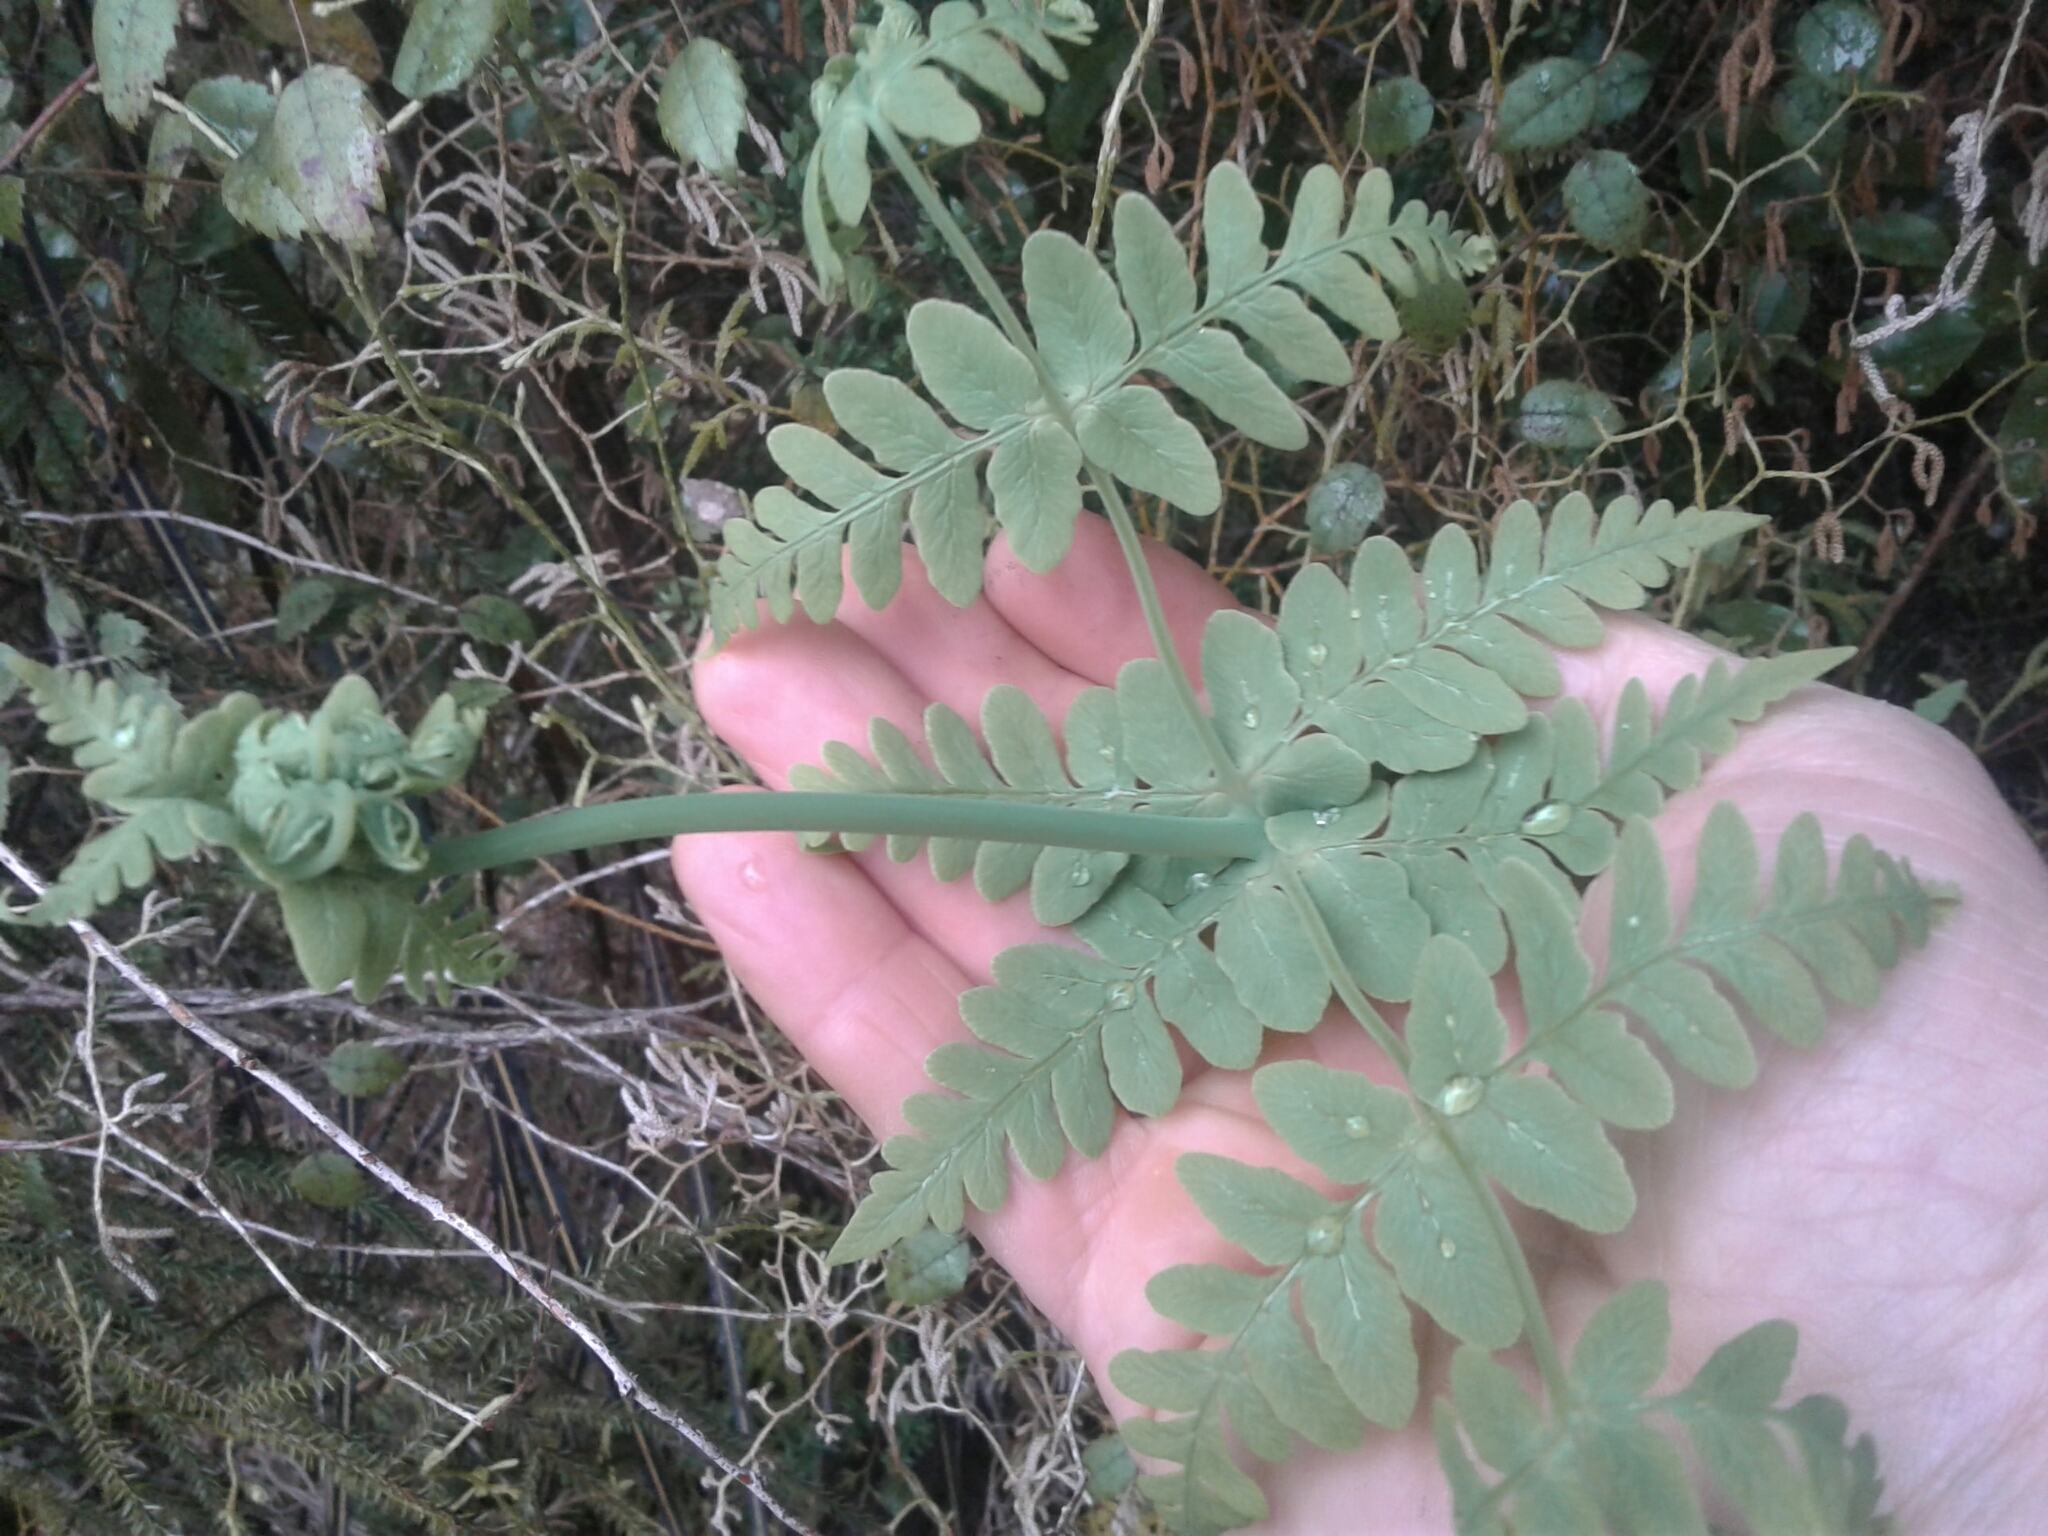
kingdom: Plantae
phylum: Tracheophyta
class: Polypodiopsida
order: Polypodiales
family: Dennstaedtiaceae
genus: Histiopteris
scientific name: Histiopteris incisa
